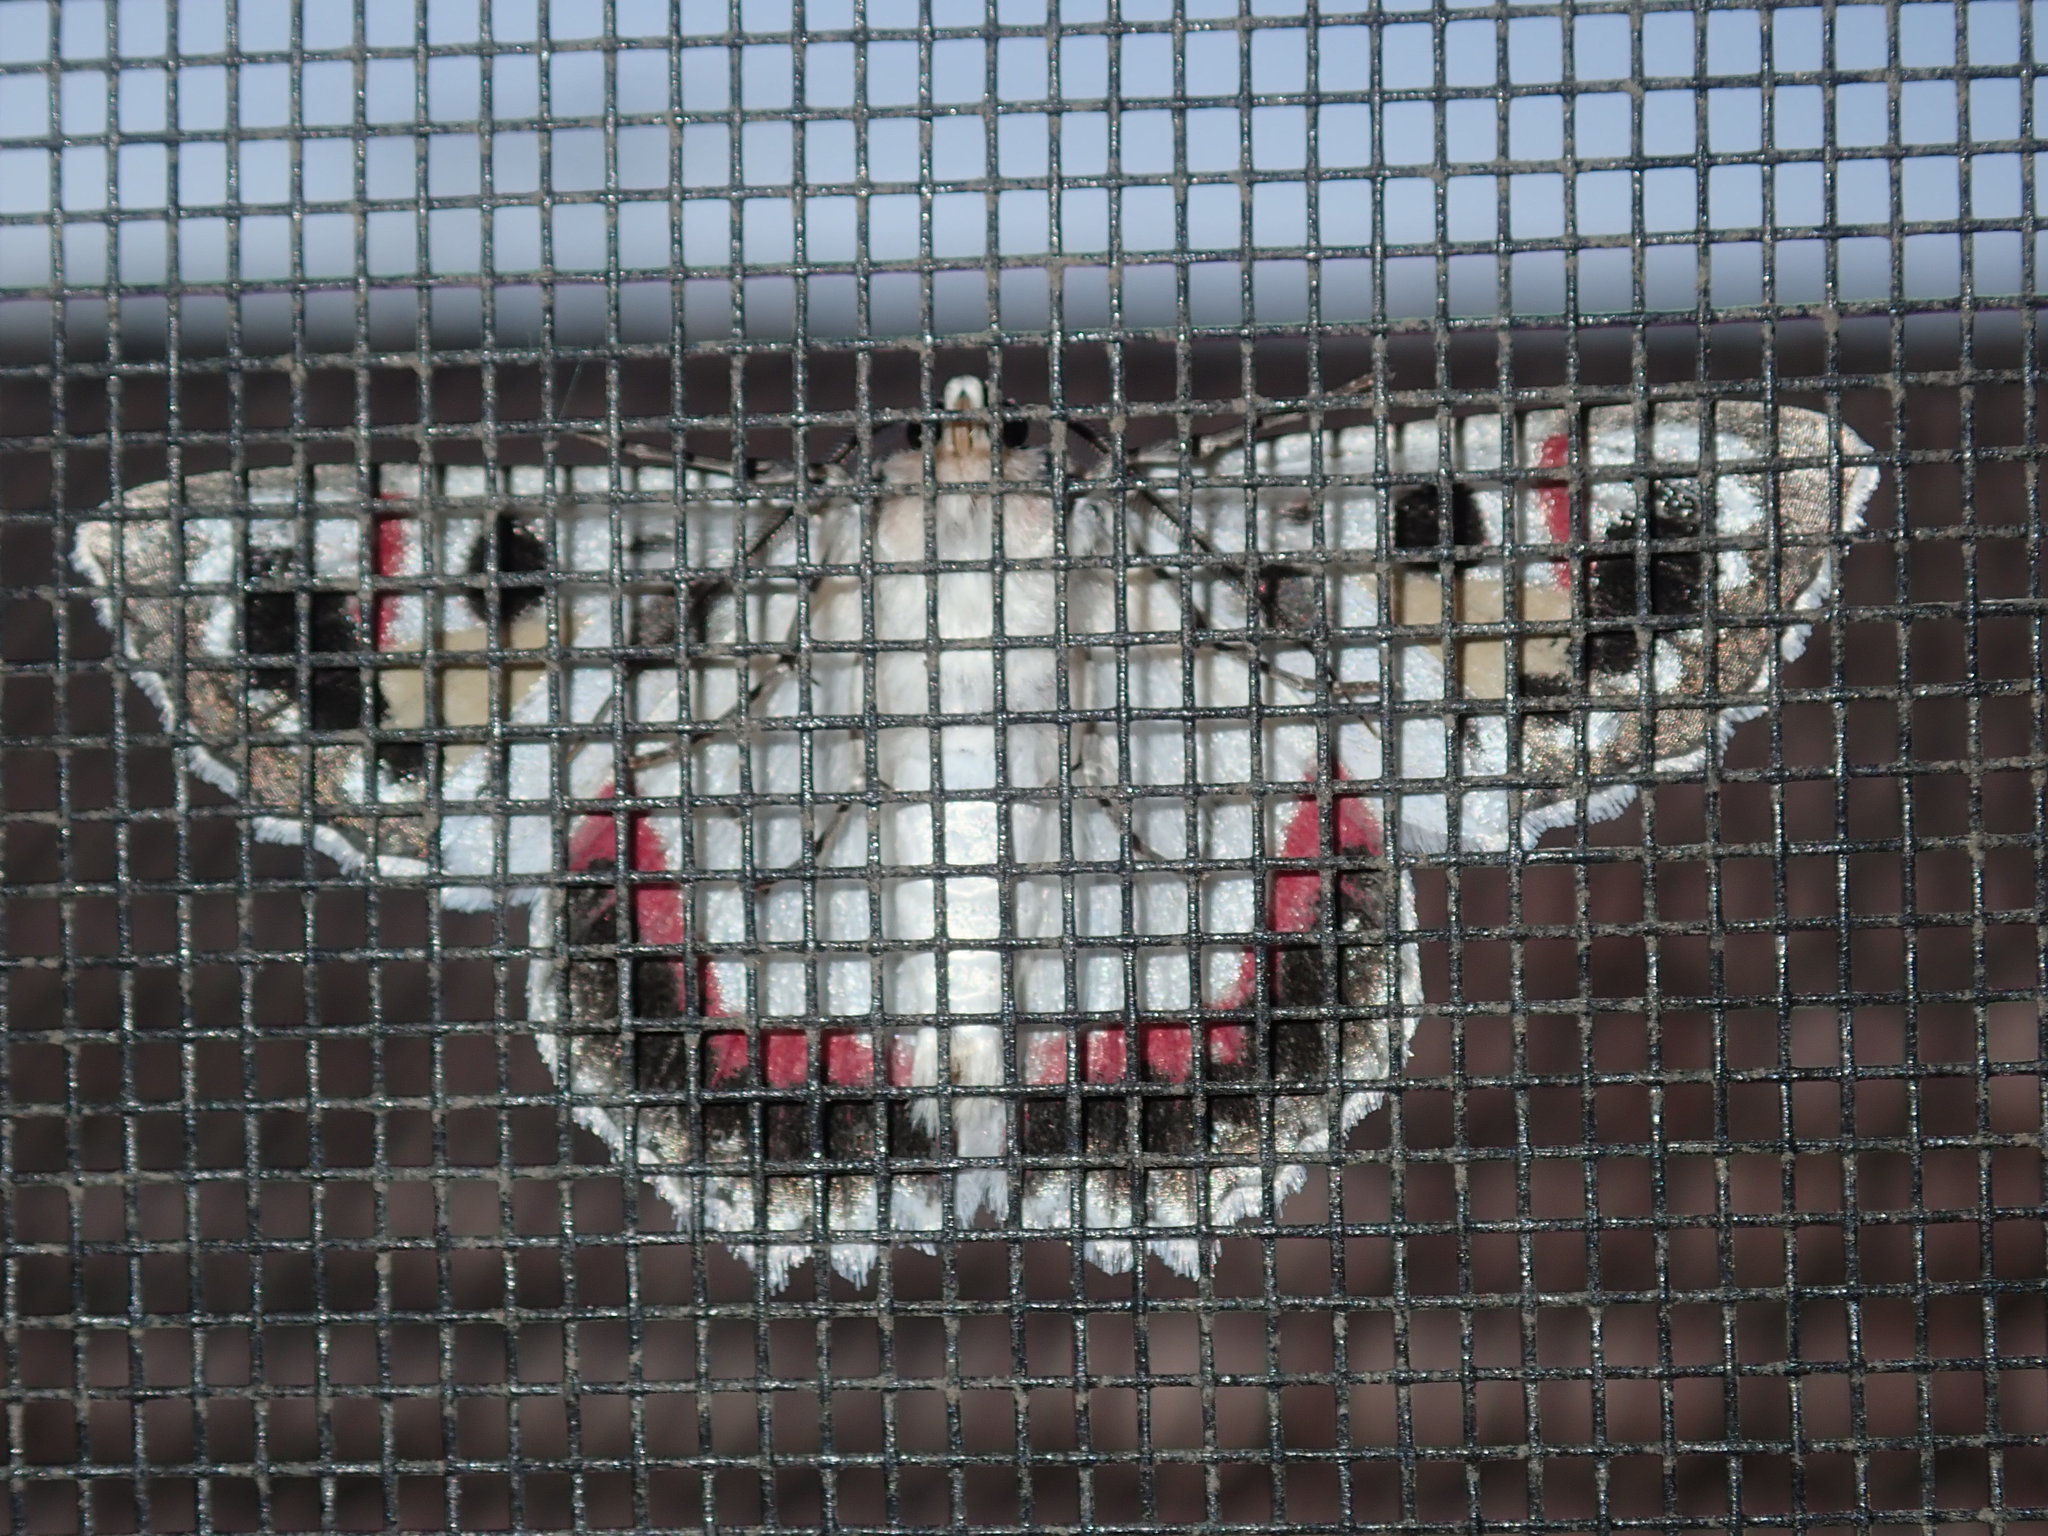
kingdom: Animalia
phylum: Arthropoda
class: Insecta
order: Lepidoptera
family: Geometridae
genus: Crypsiphona
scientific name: Crypsiphona ocultaria
